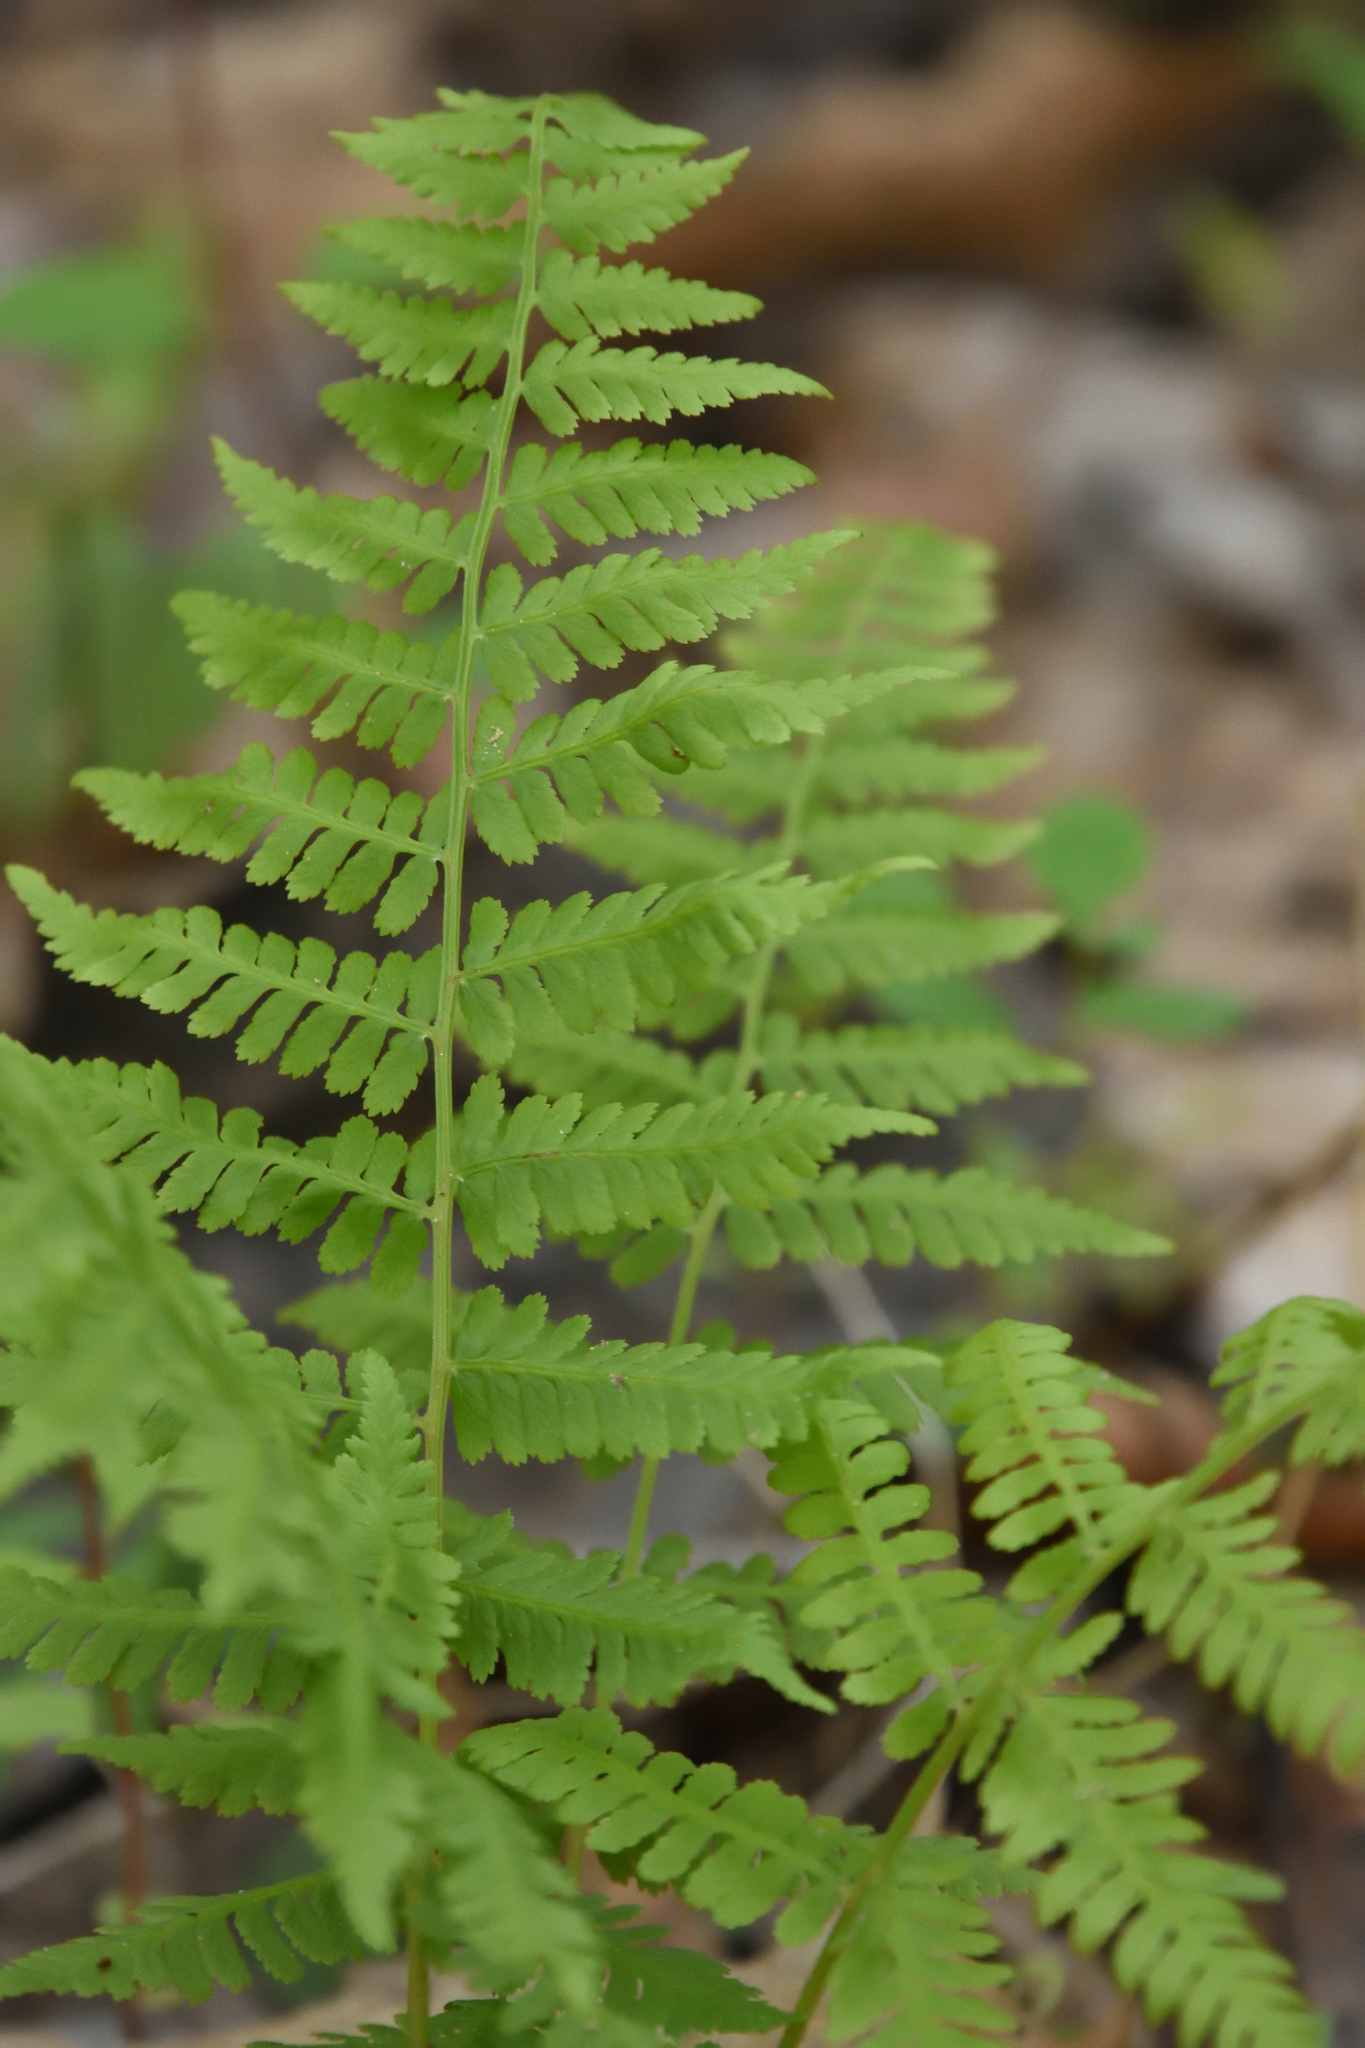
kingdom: Plantae
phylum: Tracheophyta
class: Polypodiopsida
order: Polypodiales
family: Athyriaceae
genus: Athyrium
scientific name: Athyrium asplenioides
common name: Southern lady fern
